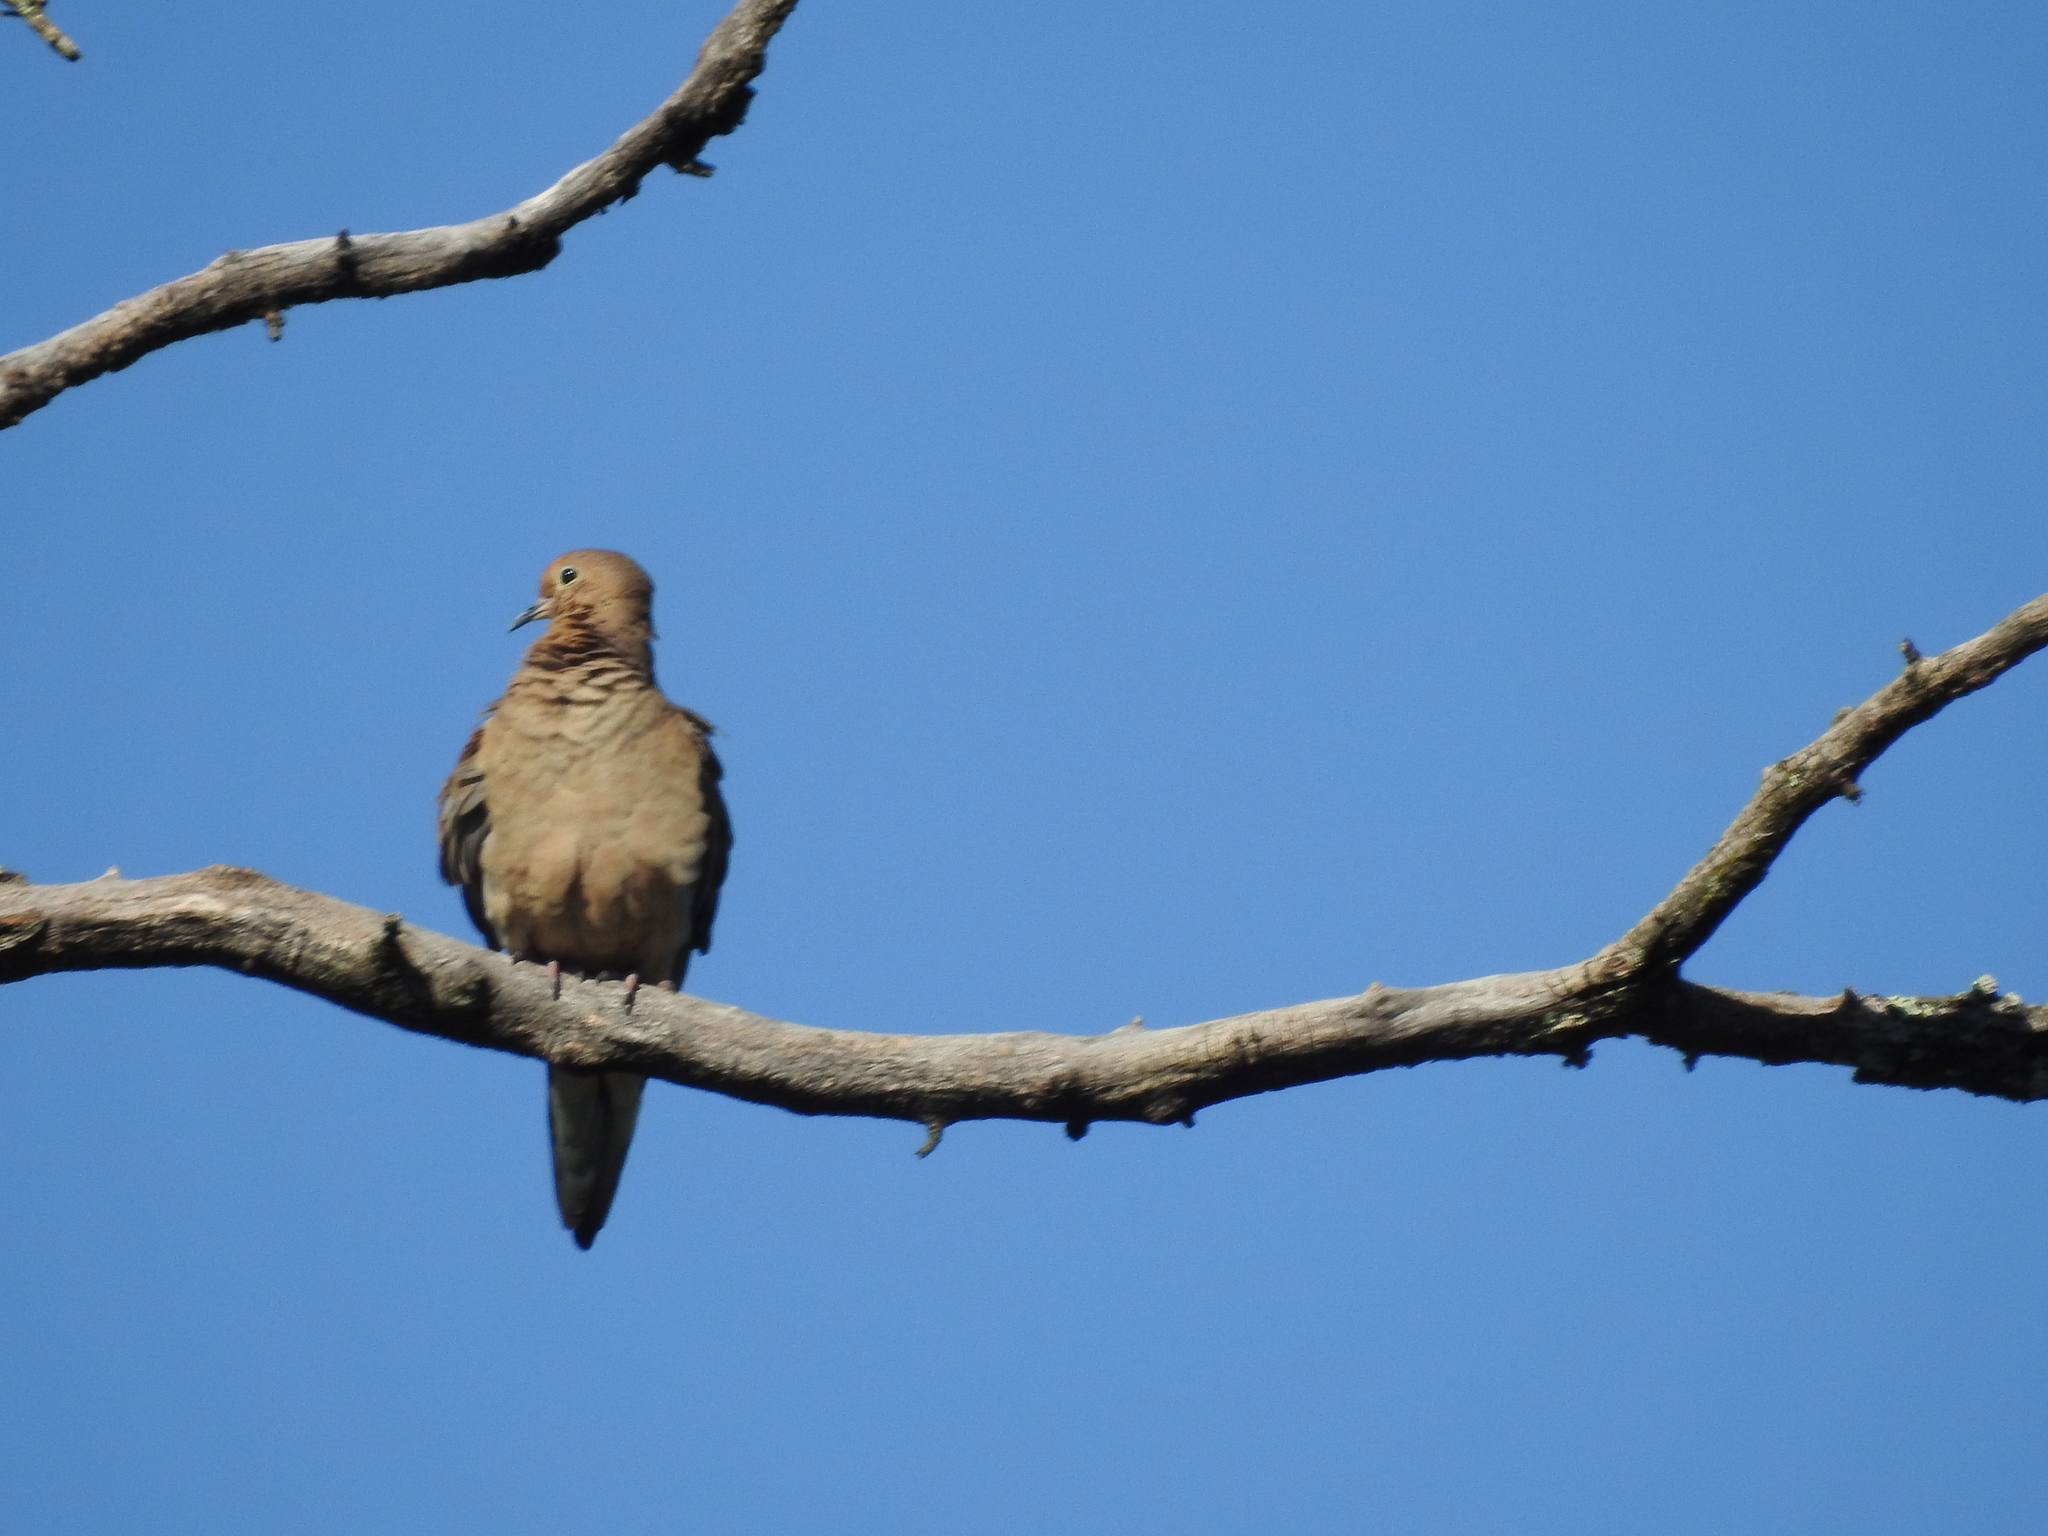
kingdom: Animalia
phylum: Chordata
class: Aves
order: Columbiformes
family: Columbidae
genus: Zenaida
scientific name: Zenaida macroura
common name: Mourning dove
